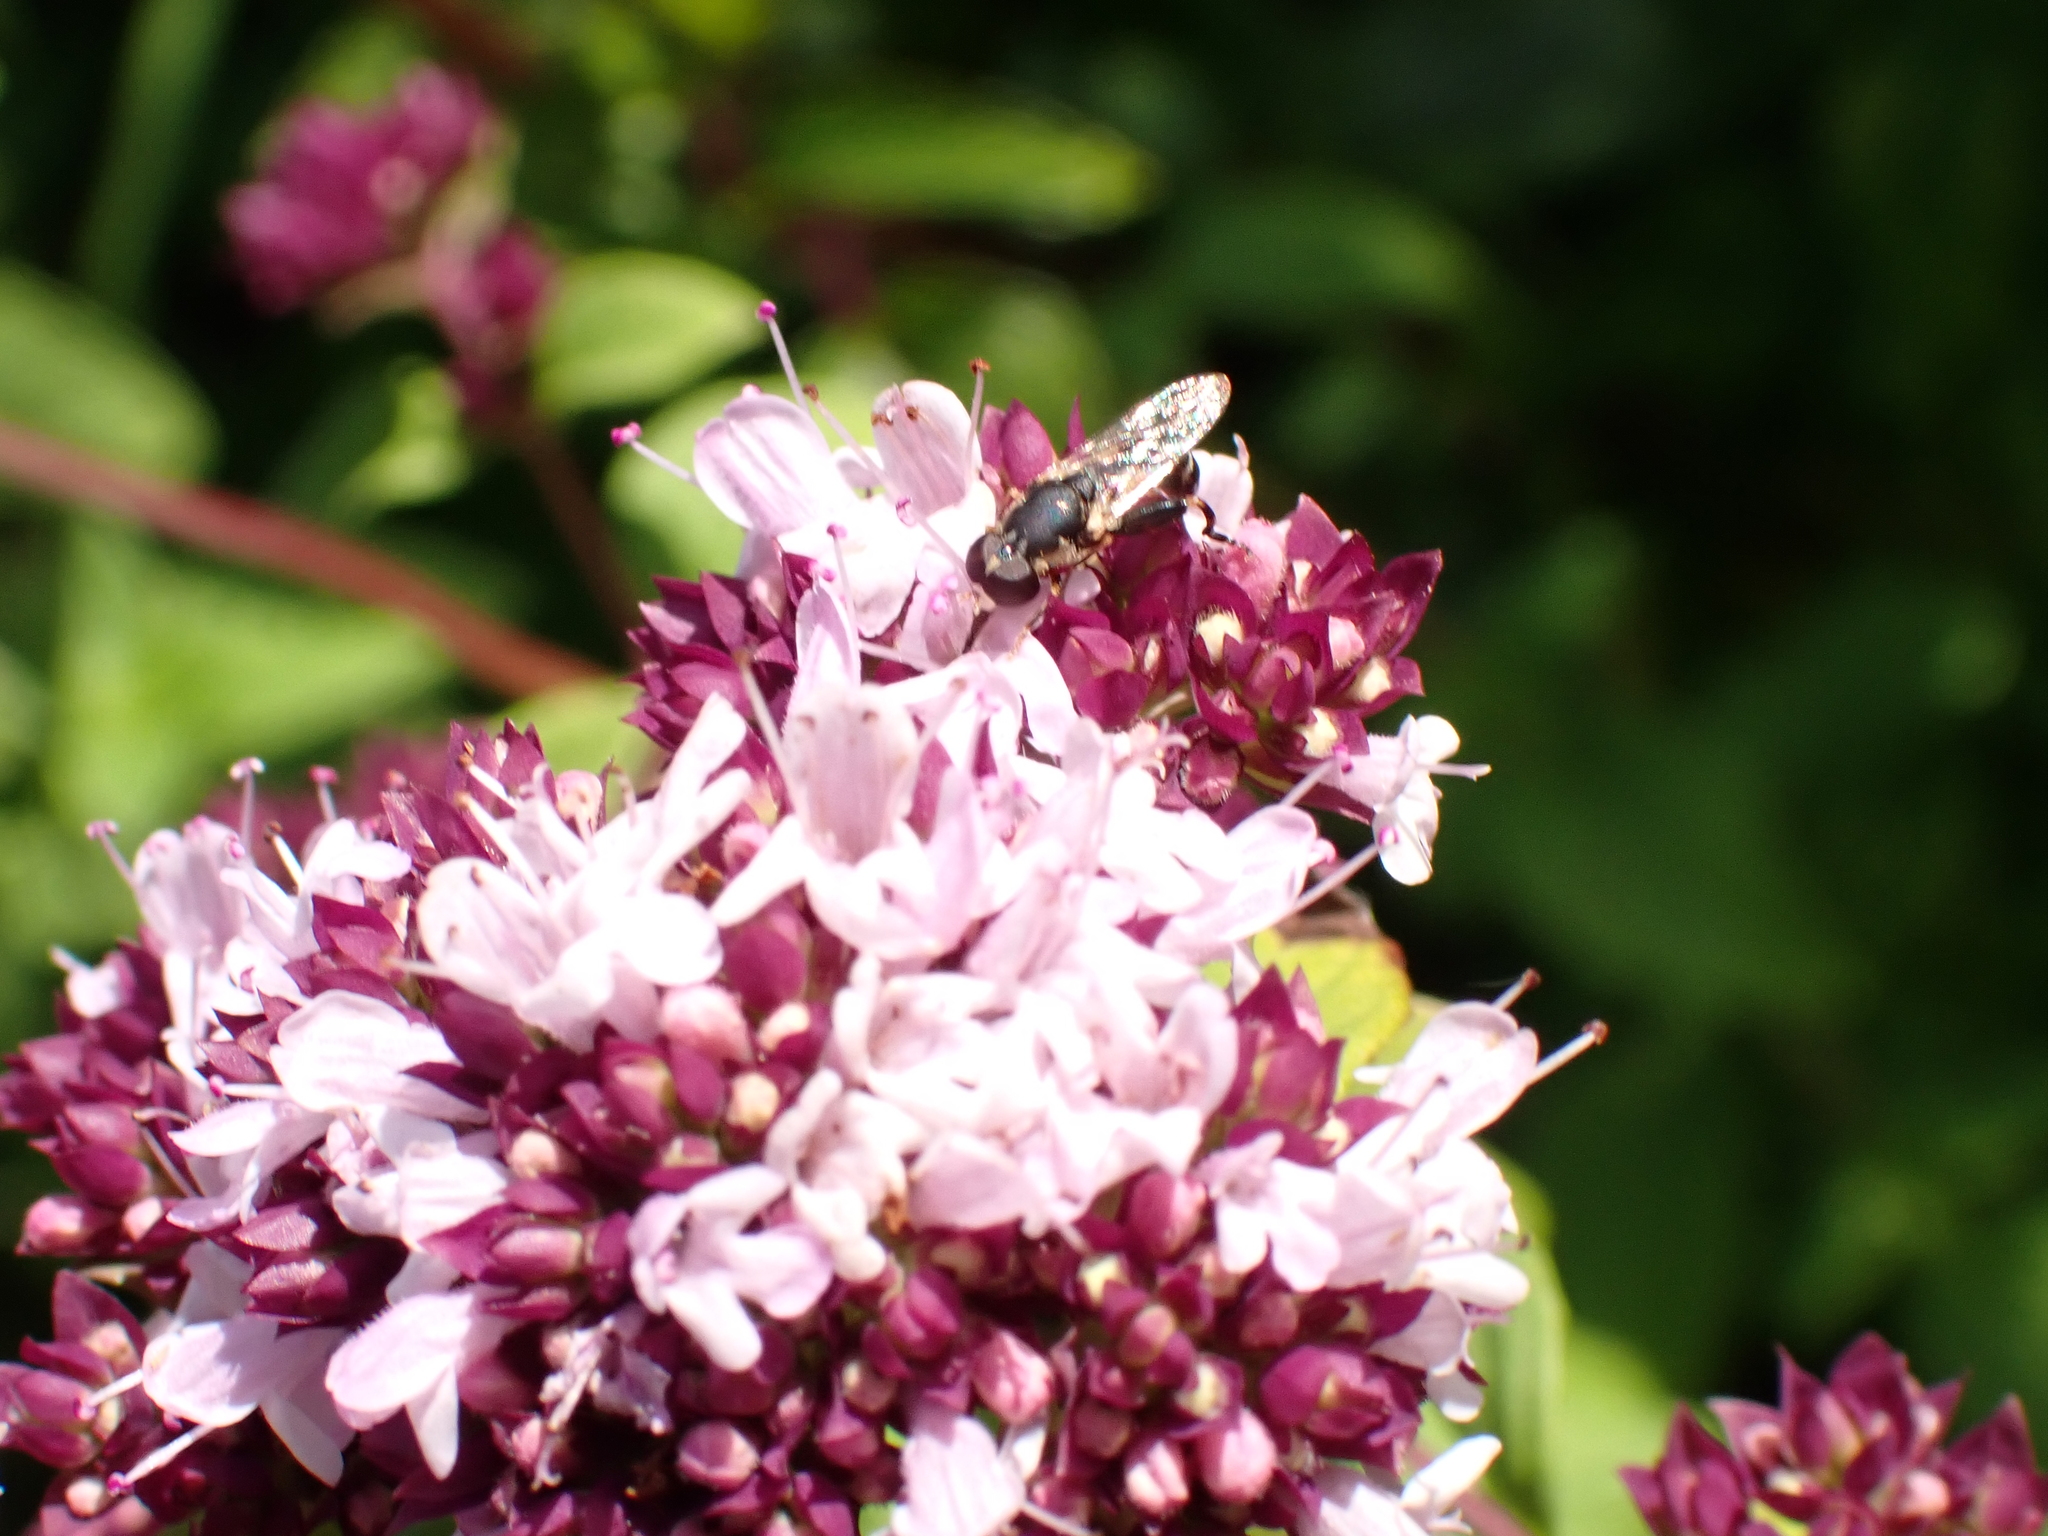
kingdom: Animalia
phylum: Arthropoda
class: Insecta
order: Diptera
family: Syrphidae
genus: Syritta
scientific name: Syritta pipiens
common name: Hover fly
